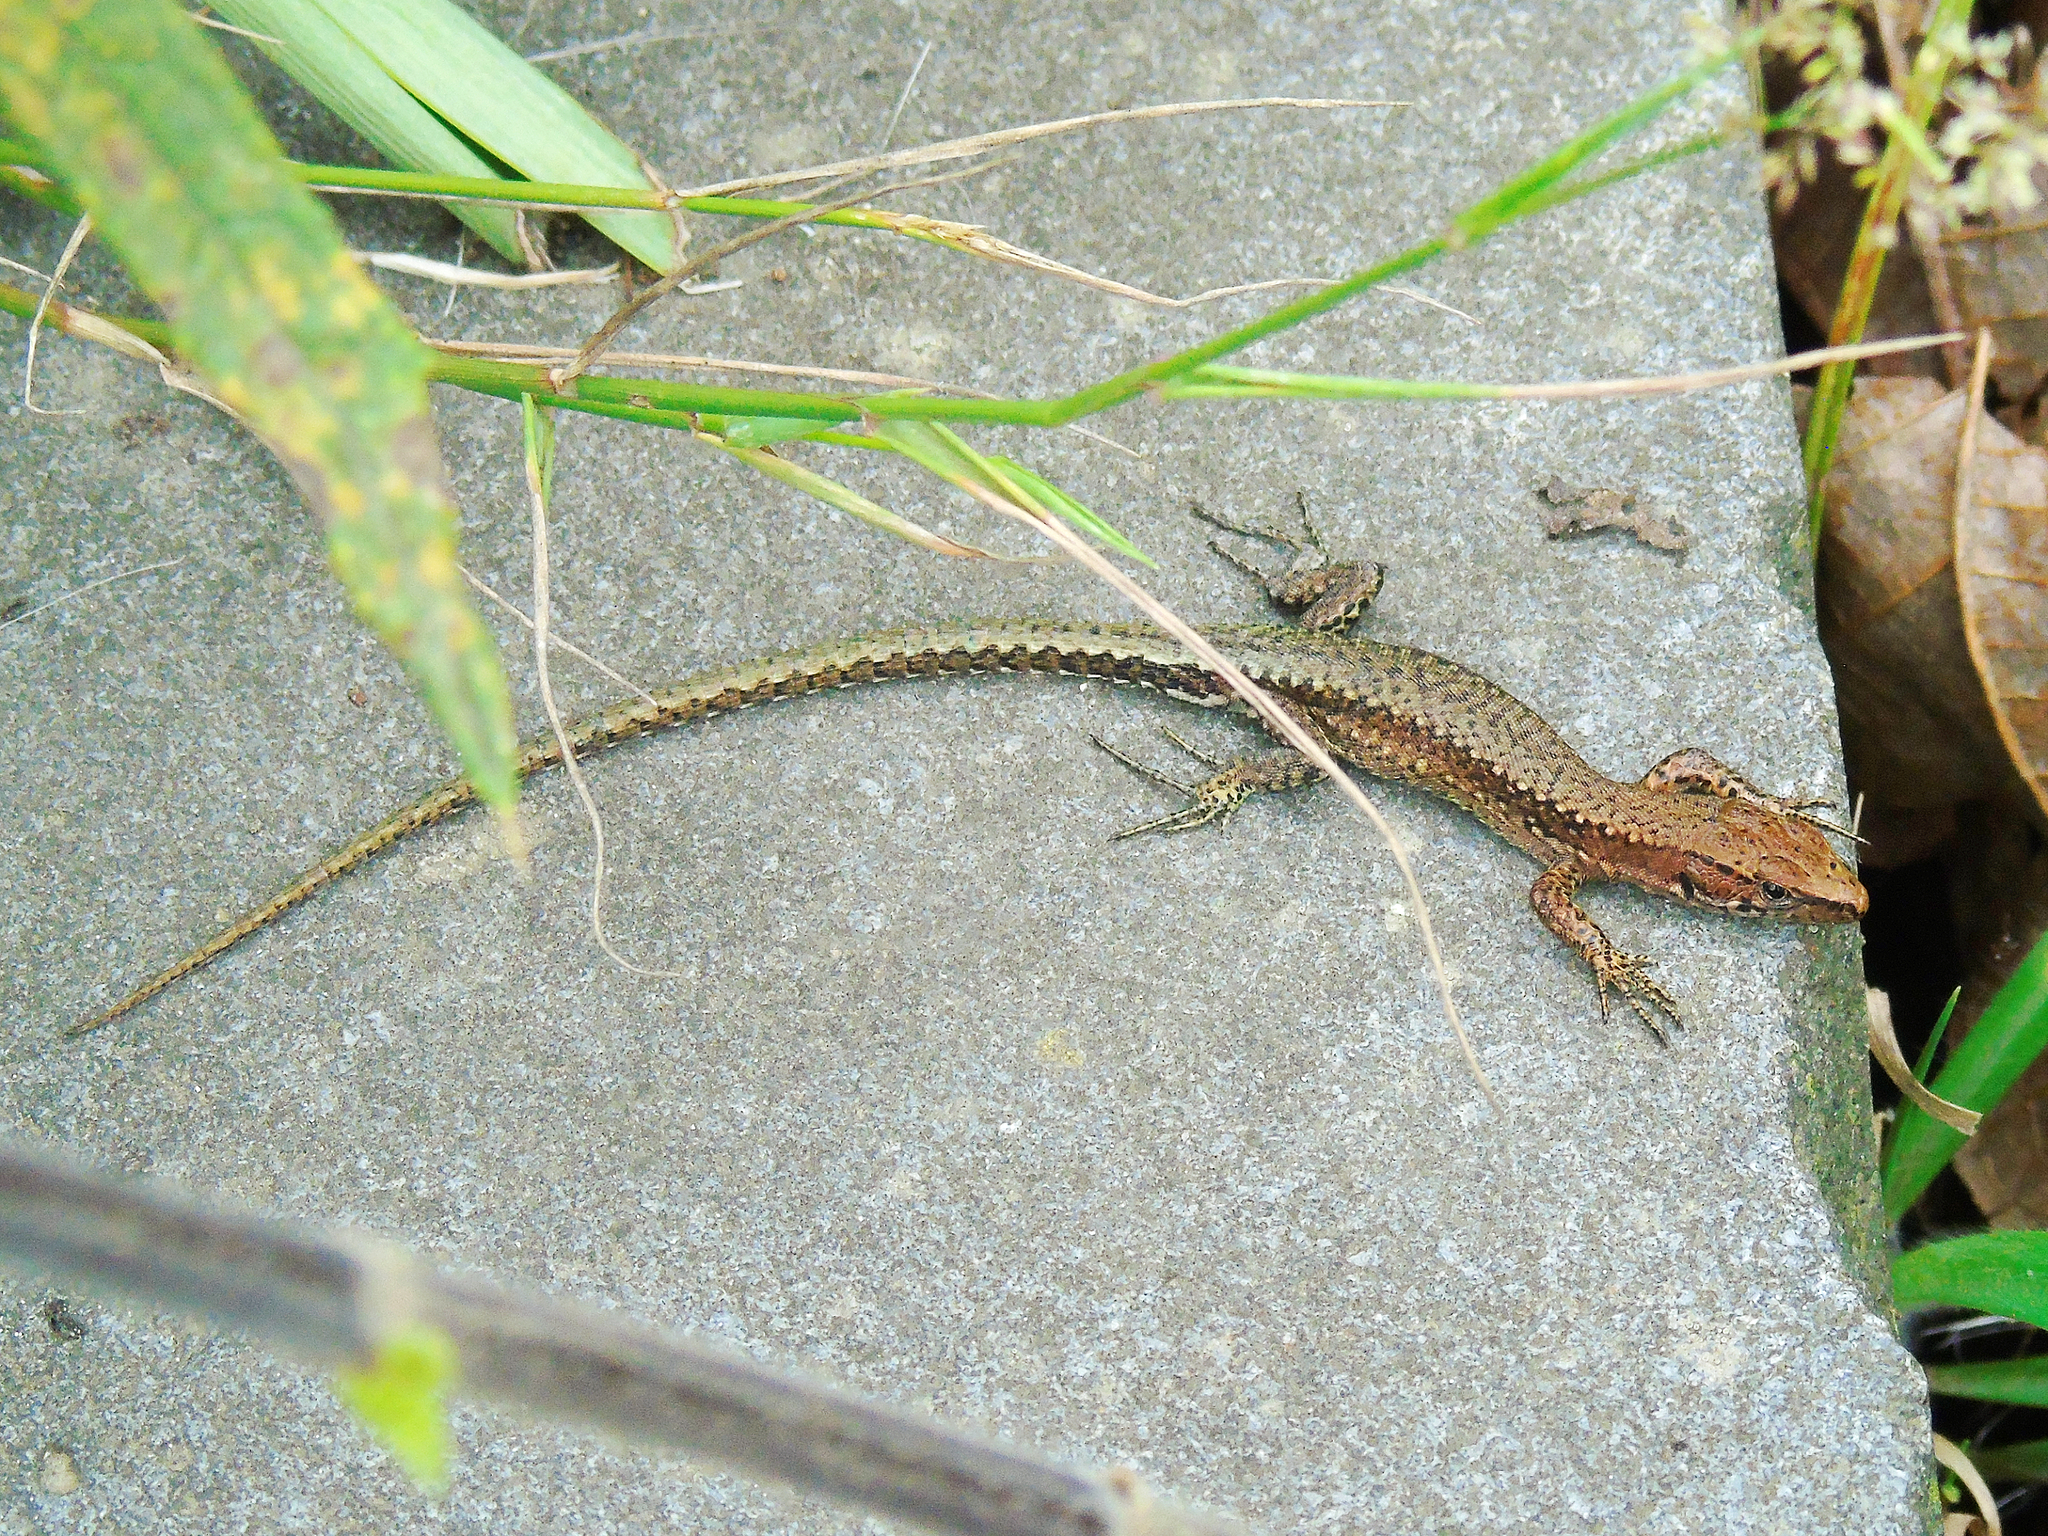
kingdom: Animalia
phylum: Chordata
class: Squamata
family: Lacertidae
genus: Darevskia
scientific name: Darevskia derjugini
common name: Derjugin's lizard
